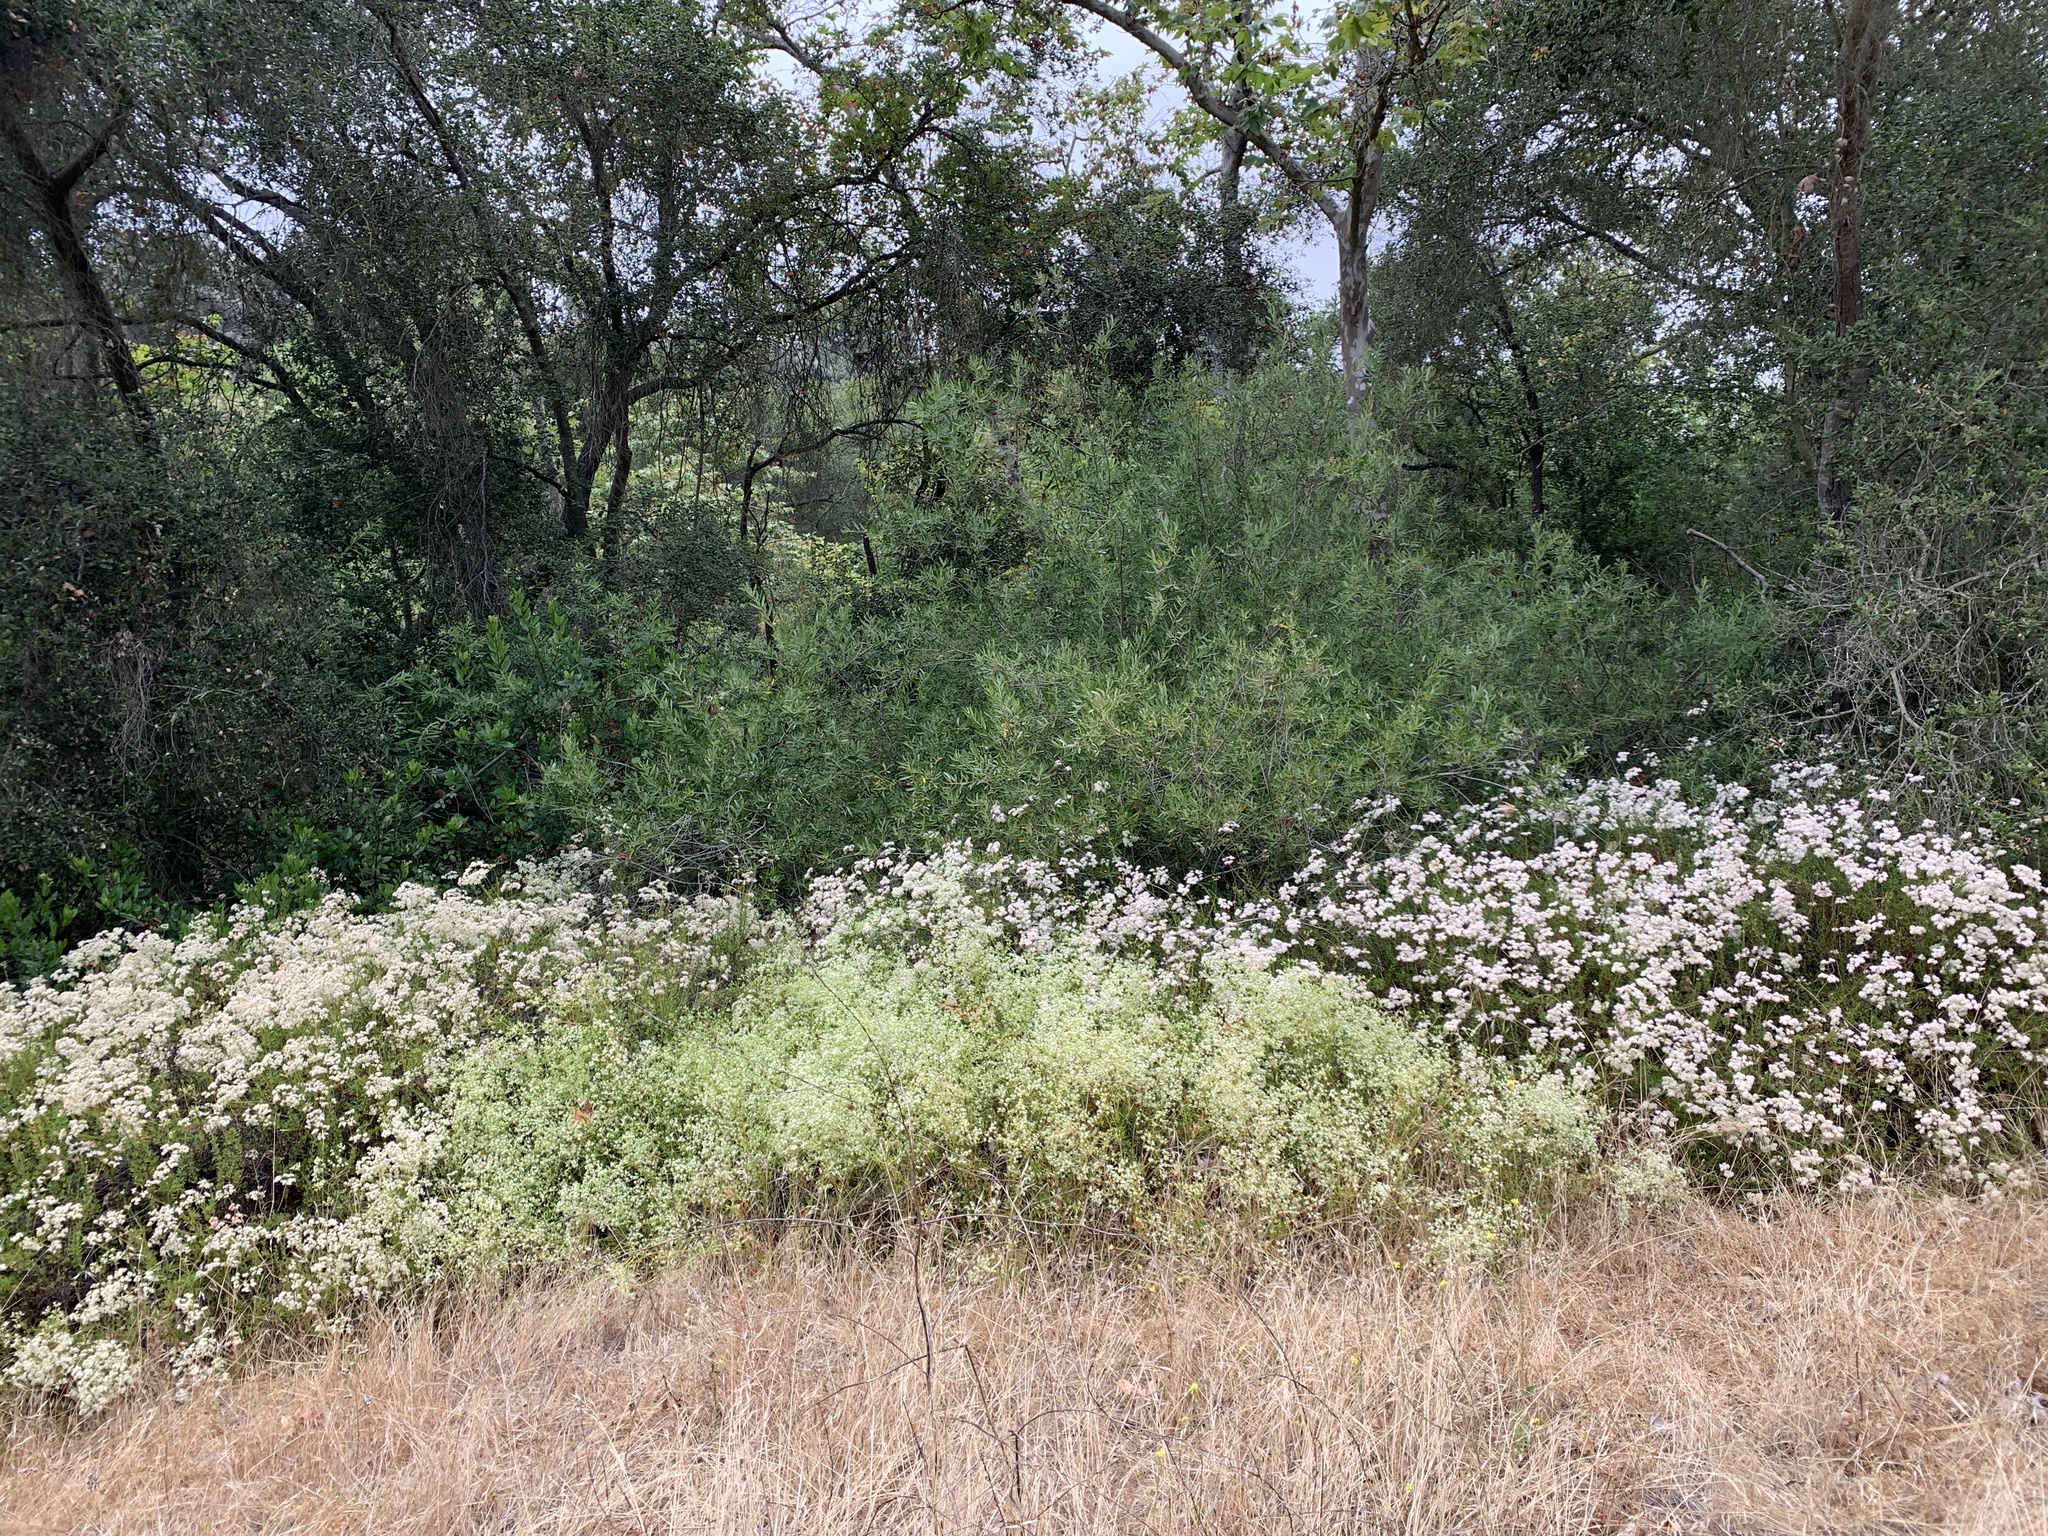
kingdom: Plantae
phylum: Tracheophyta
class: Magnoliopsida
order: Caryophyllales
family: Polygonaceae
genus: Eriogonum
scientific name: Eriogonum fasciculatum
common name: California wild buckwheat
